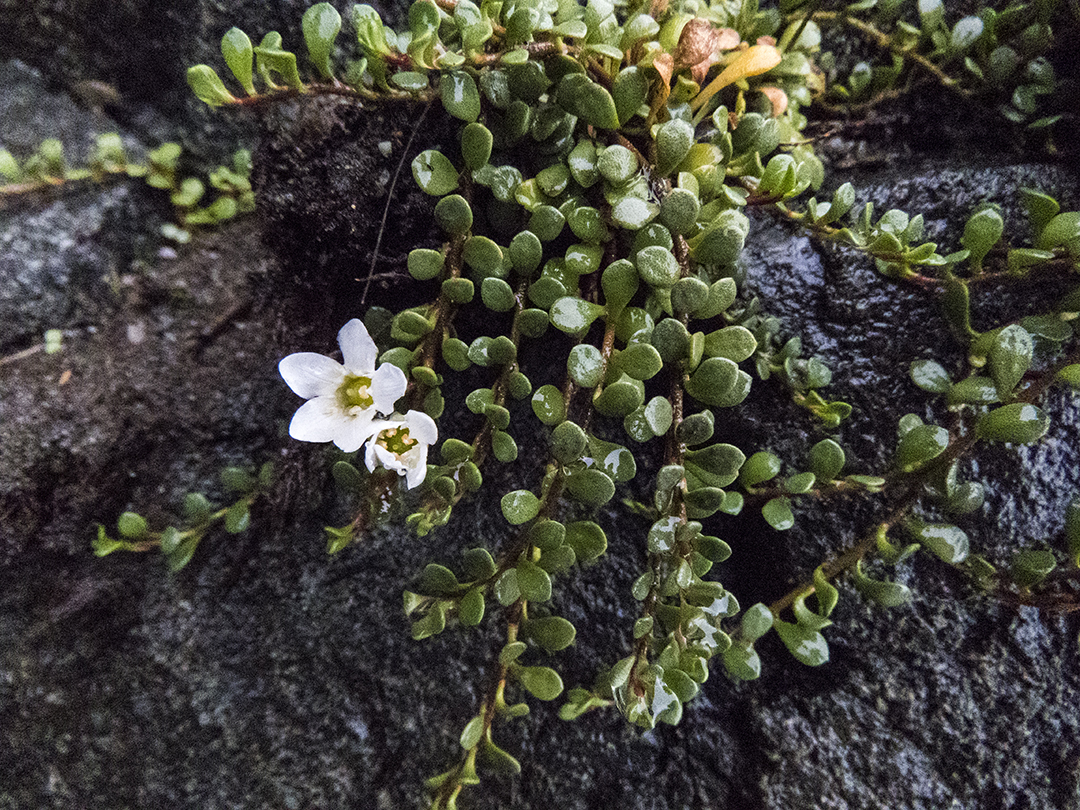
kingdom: Plantae
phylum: Tracheophyta
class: Magnoliopsida
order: Ericales
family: Primulaceae
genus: Samolus
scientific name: Samolus repens
